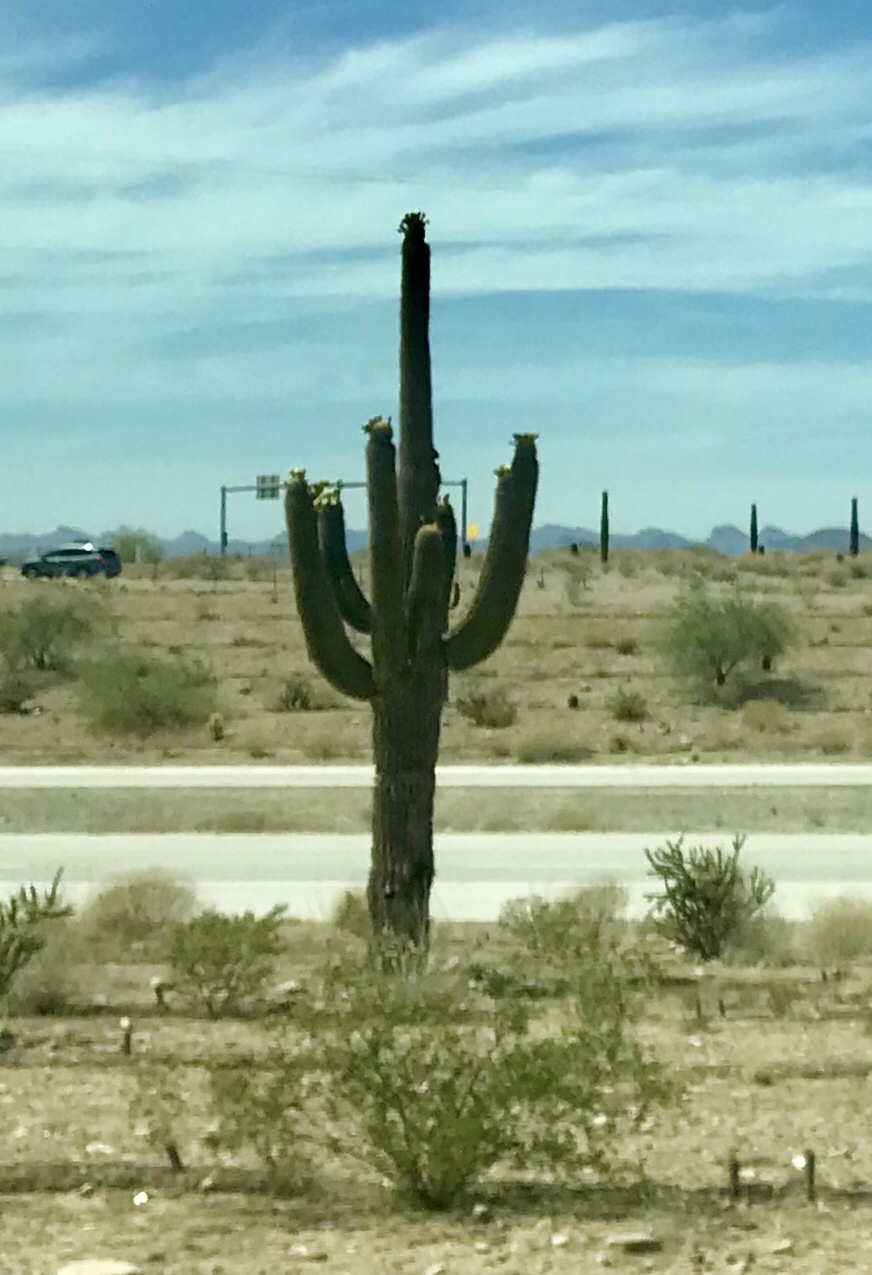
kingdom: Plantae
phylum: Tracheophyta
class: Magnoliopsida
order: Caryophyllales
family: Cactaceae
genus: Carnegiea
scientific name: Carnegiea gigantea
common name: Saguaro
